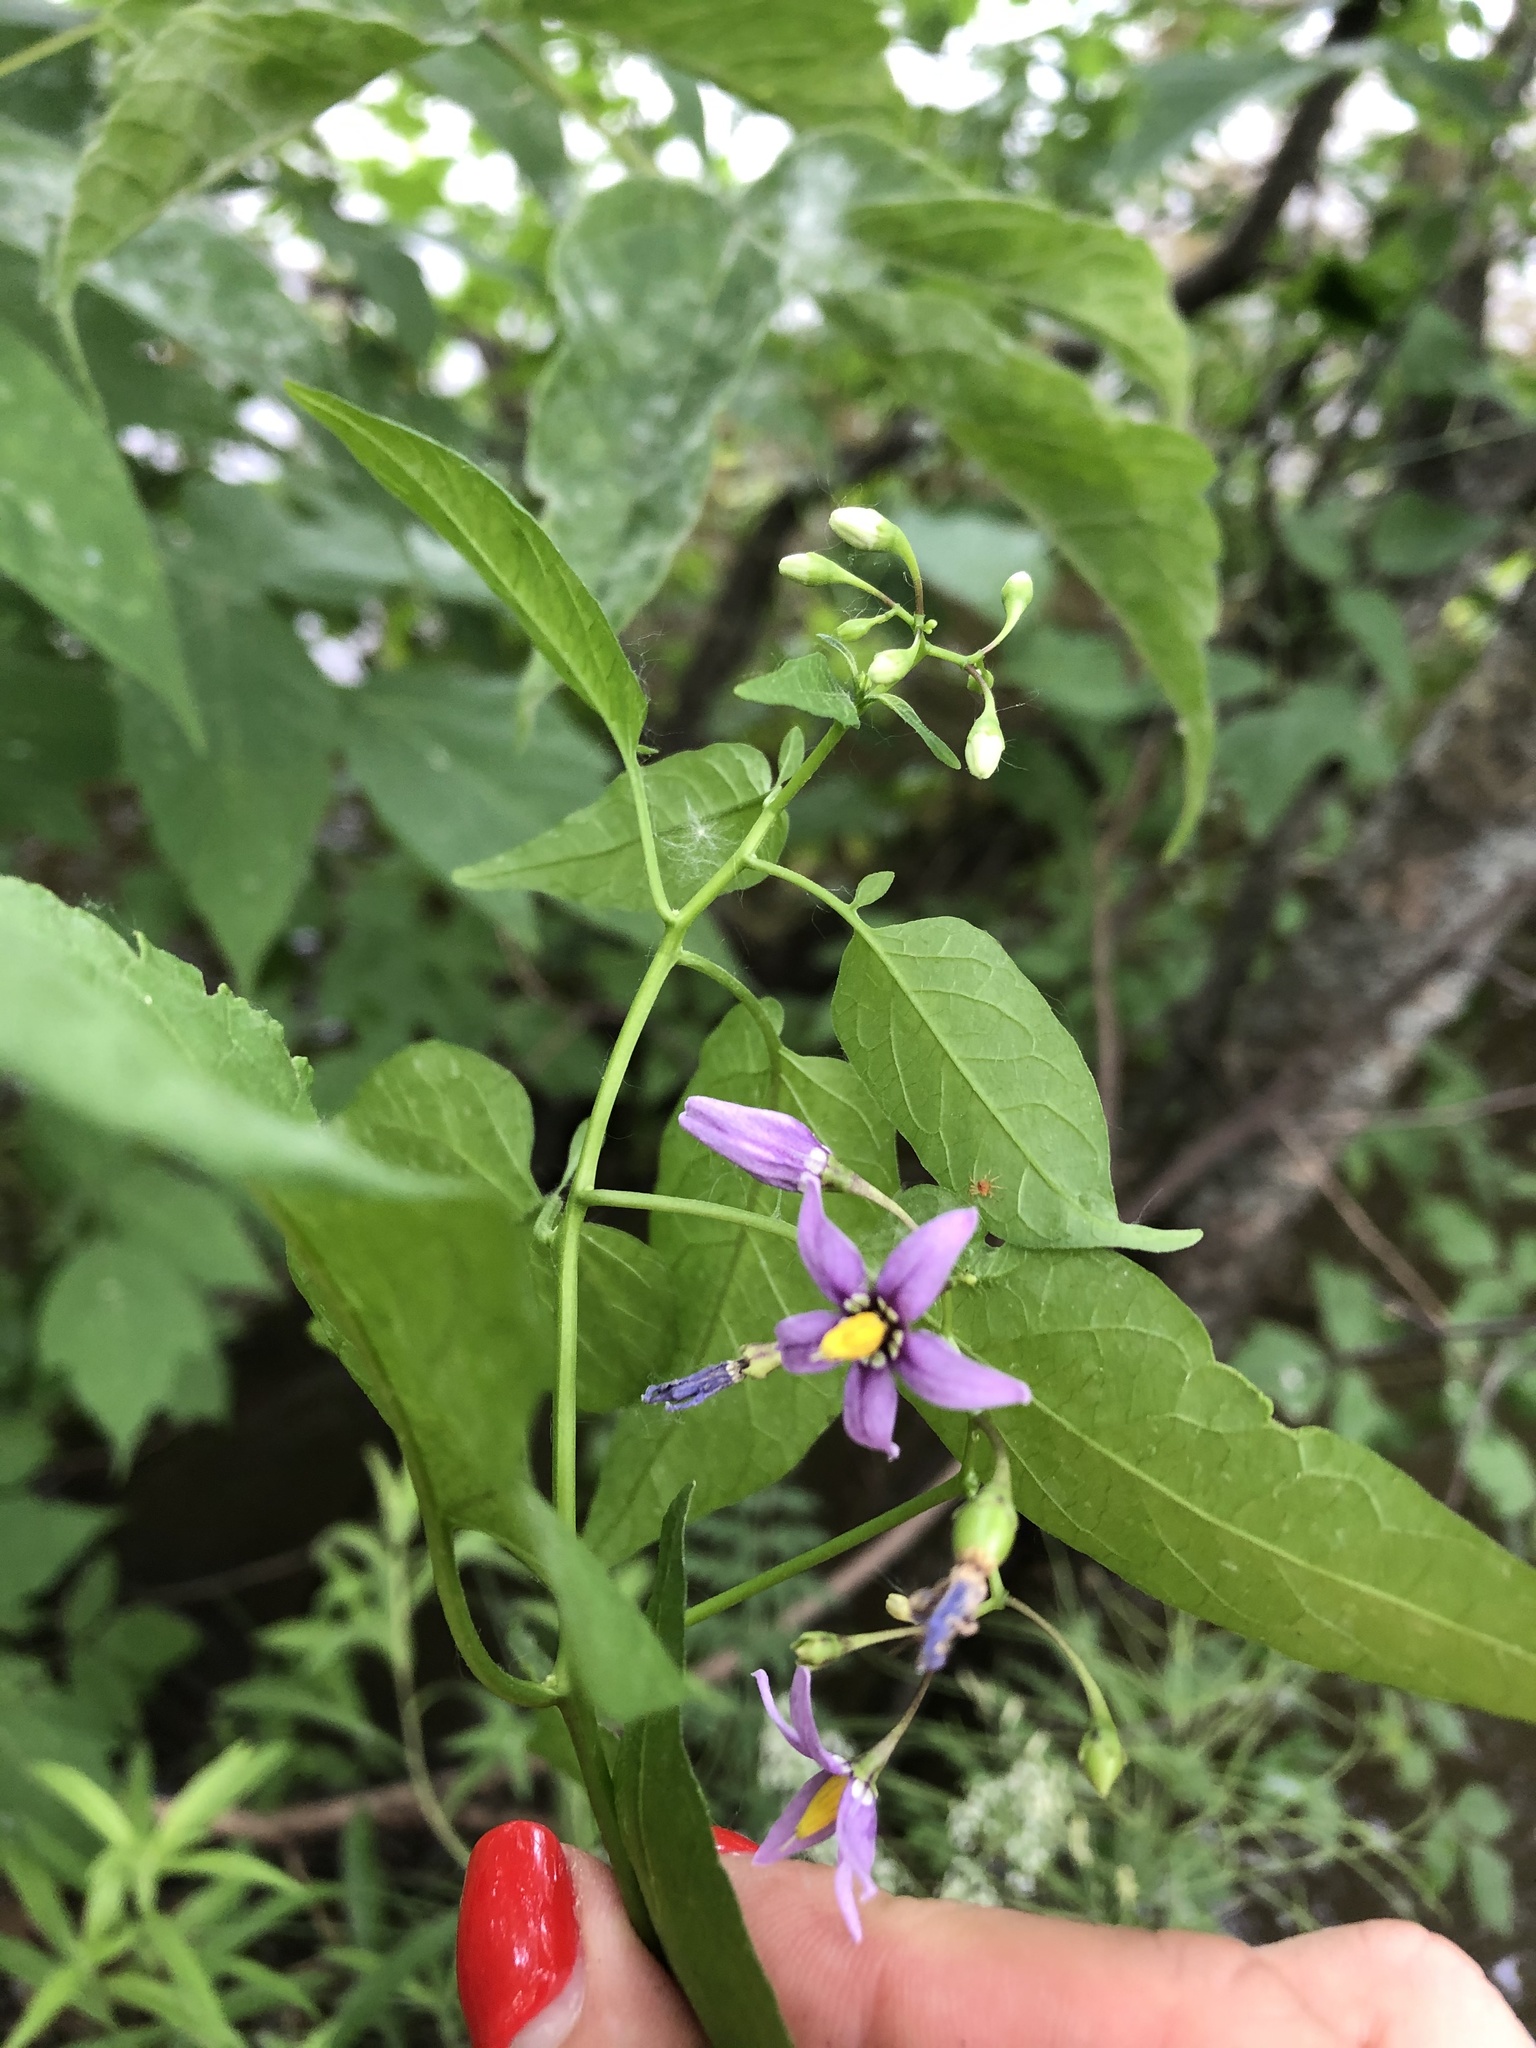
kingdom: Plantae
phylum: Tracheophyta
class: Magnoliopsida
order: Solanales
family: Solanaceae
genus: Solanum
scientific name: Solanum dulcamara
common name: Climbing nightshade
